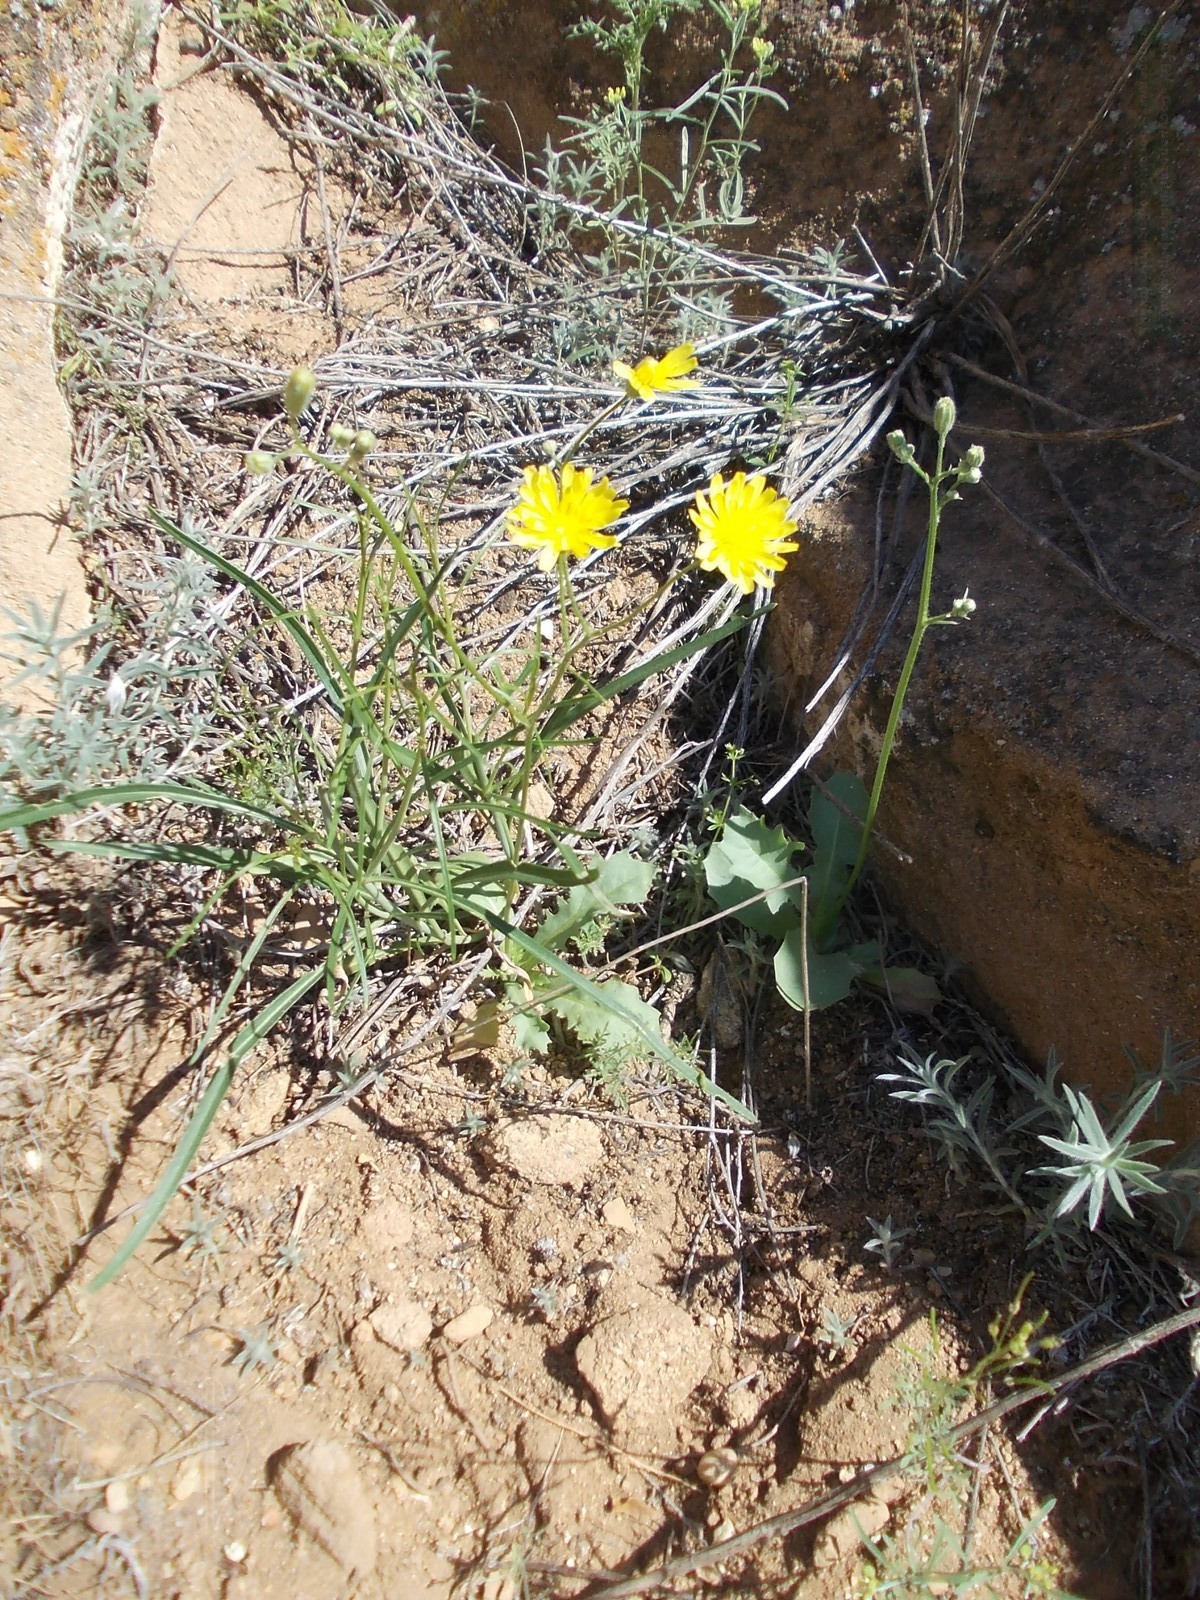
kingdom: Plantae
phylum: Tracheophyta
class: Magnoliopsida
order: Asterales
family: Asteraceae
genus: Crepis
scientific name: Crepis sancta
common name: Hawk's-beard
